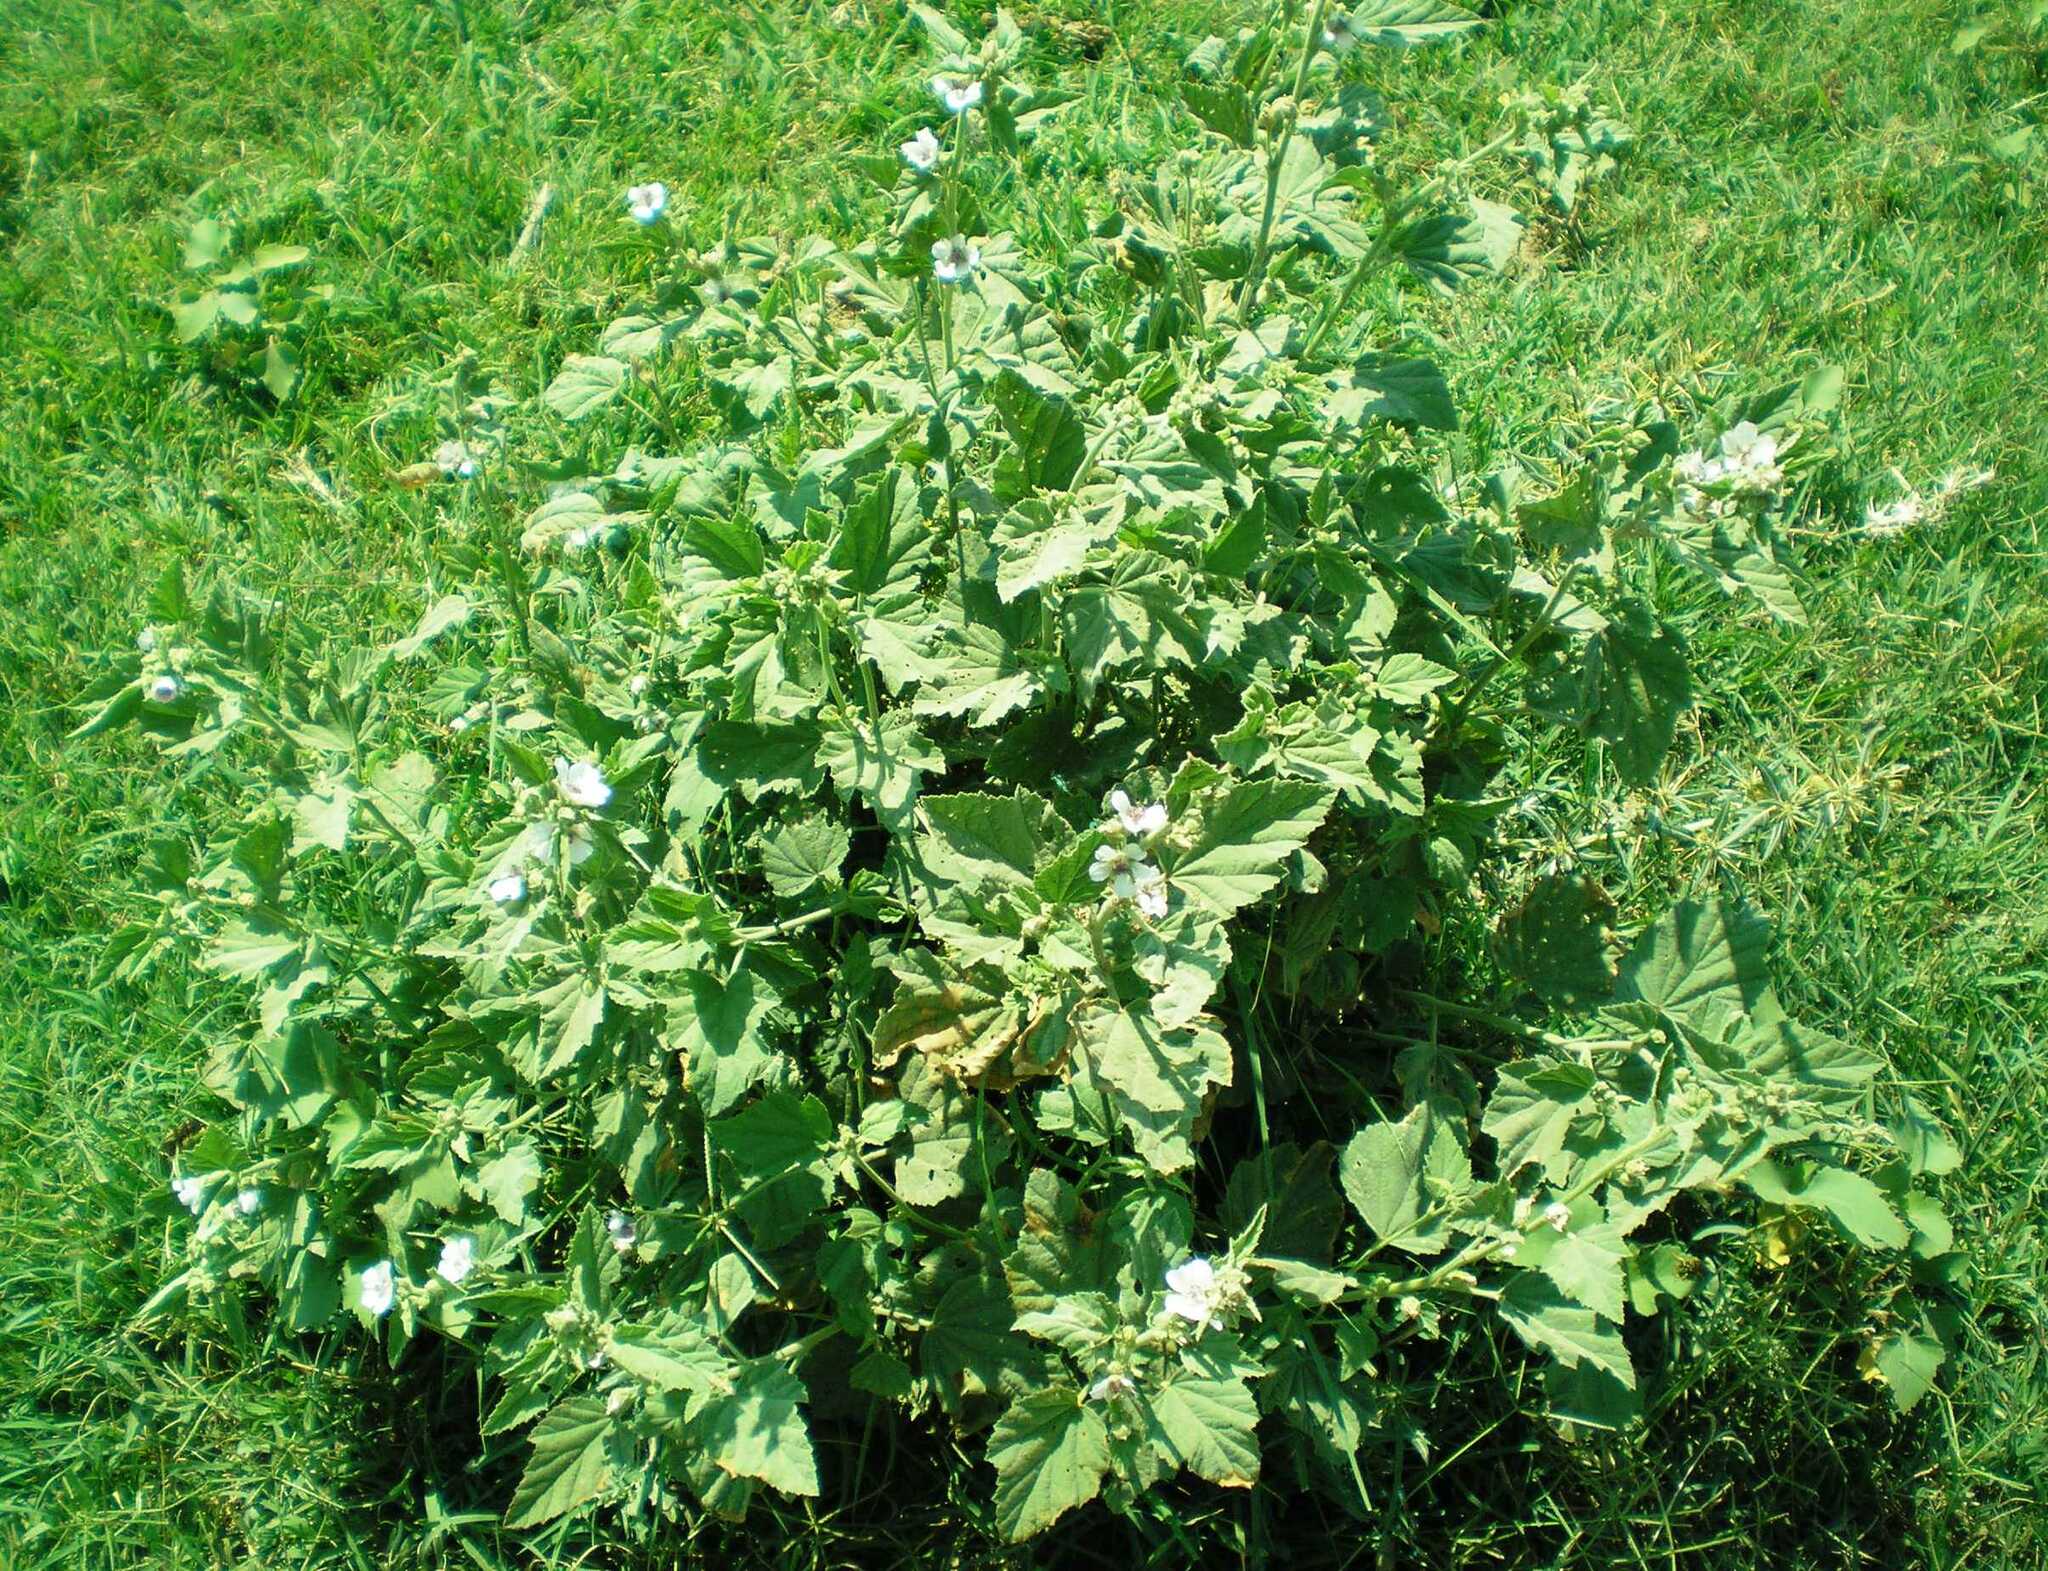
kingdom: Plantae
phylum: Tracheophyta
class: Magnoliopsida
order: Malvales
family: Malvaceae
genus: Althaea
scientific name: Althaea officinalis
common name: Marsh-mallow
